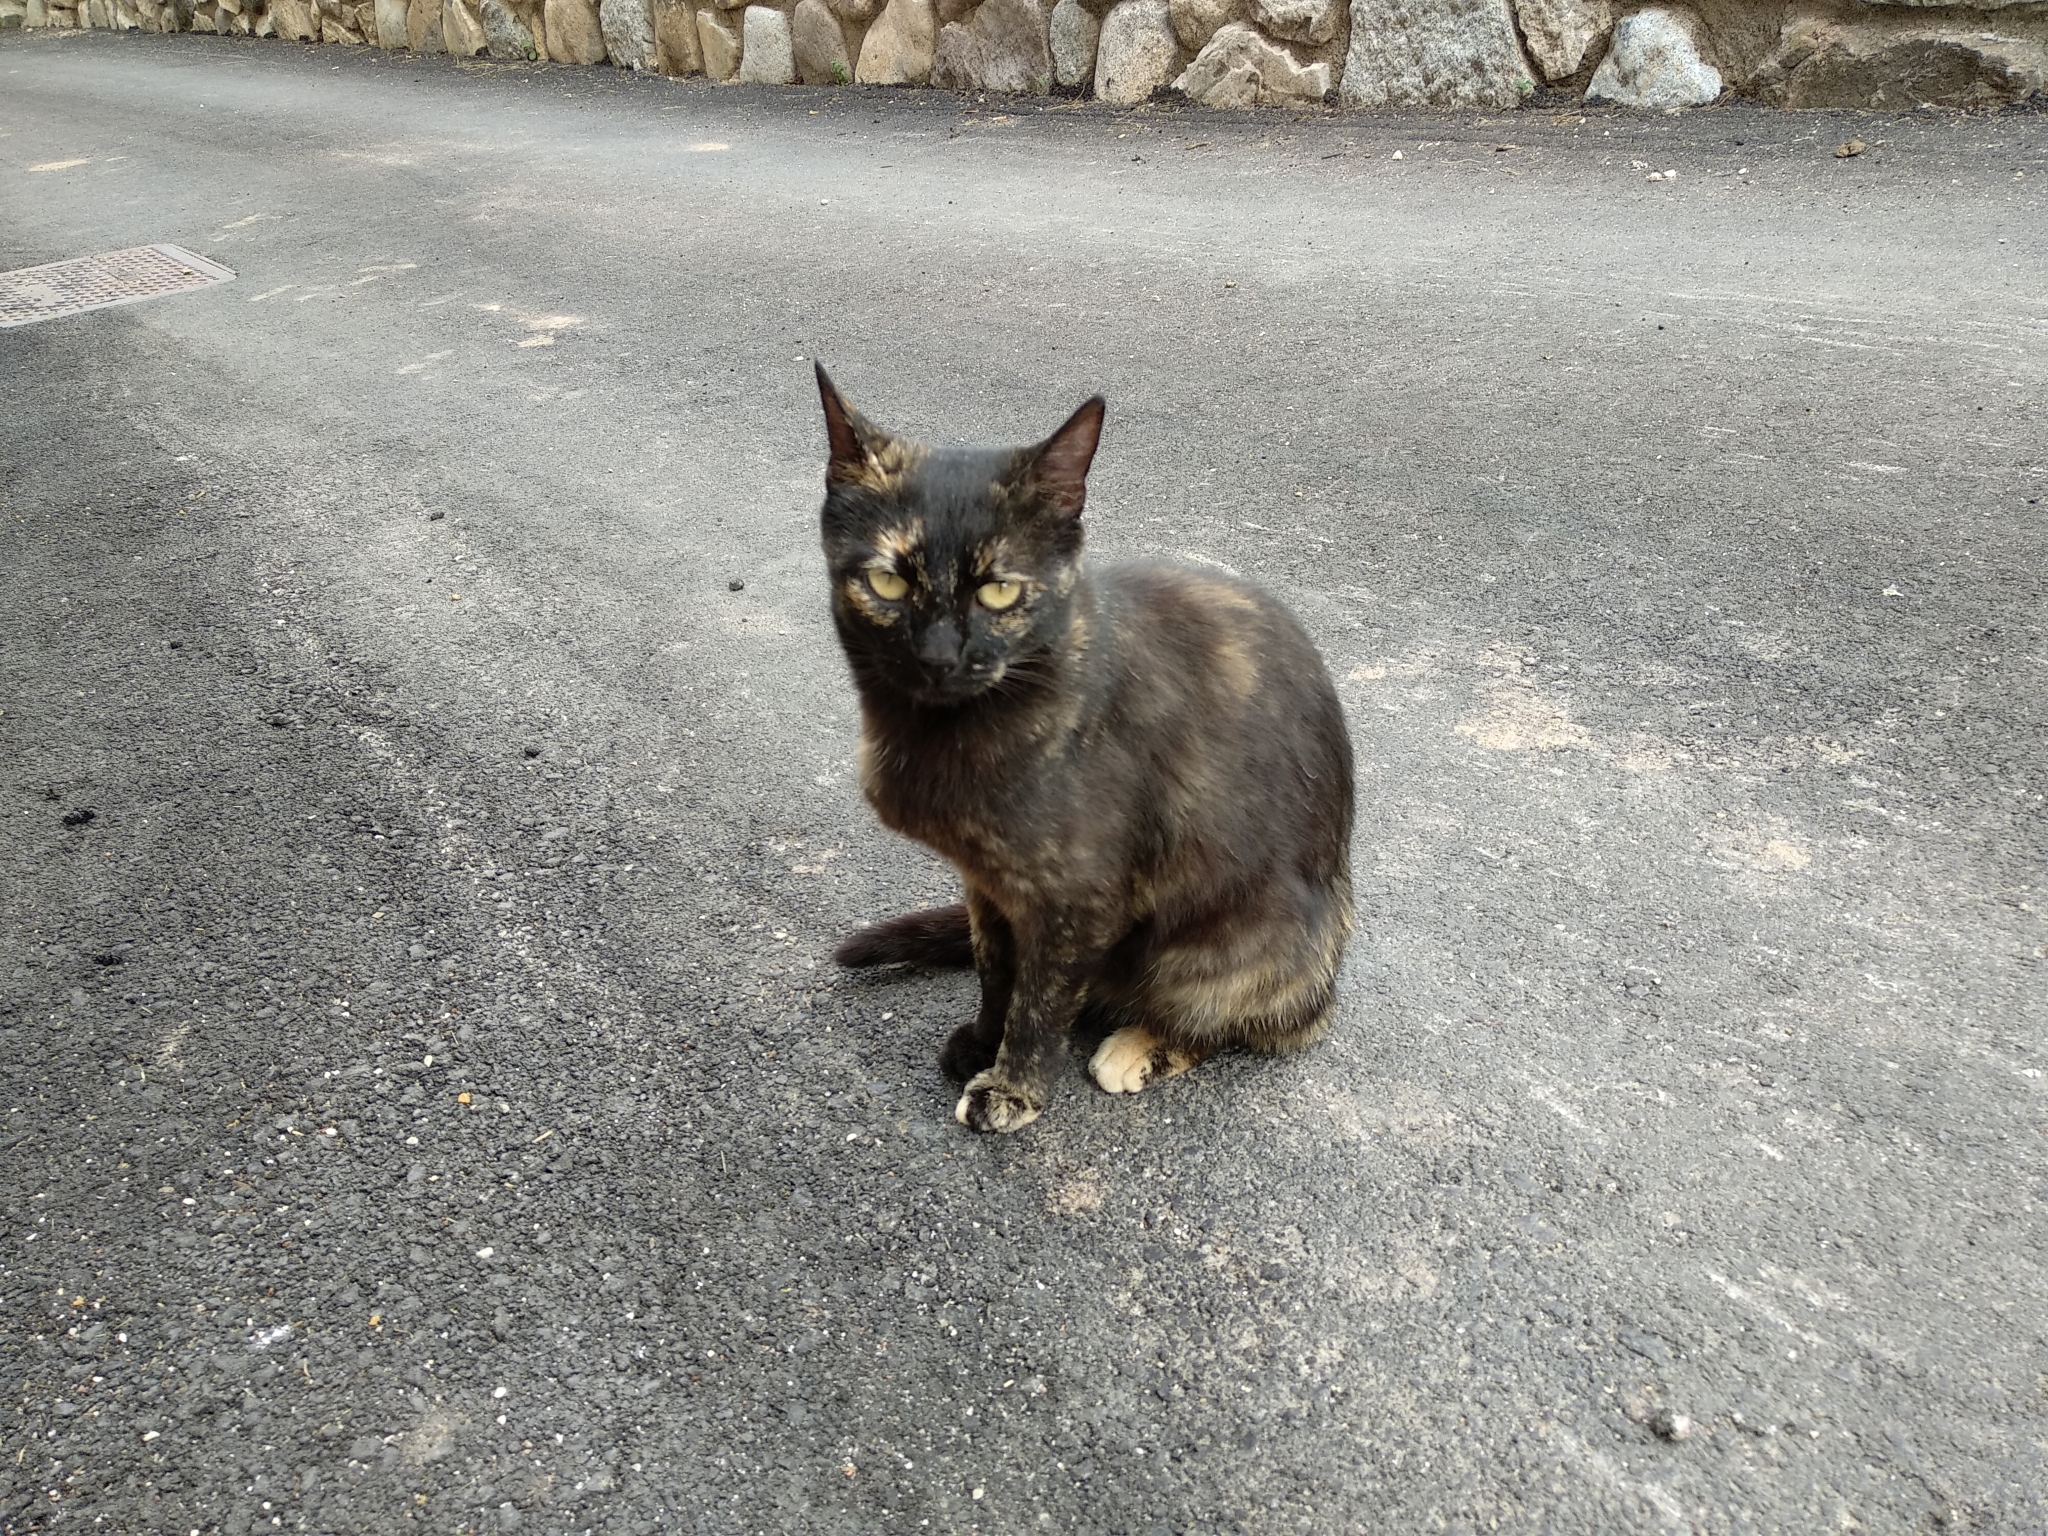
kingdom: Animalia
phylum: Chordata
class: Mammalia
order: Carnivora
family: Felidae
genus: Felis
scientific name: Felis catus
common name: Domestic cat
